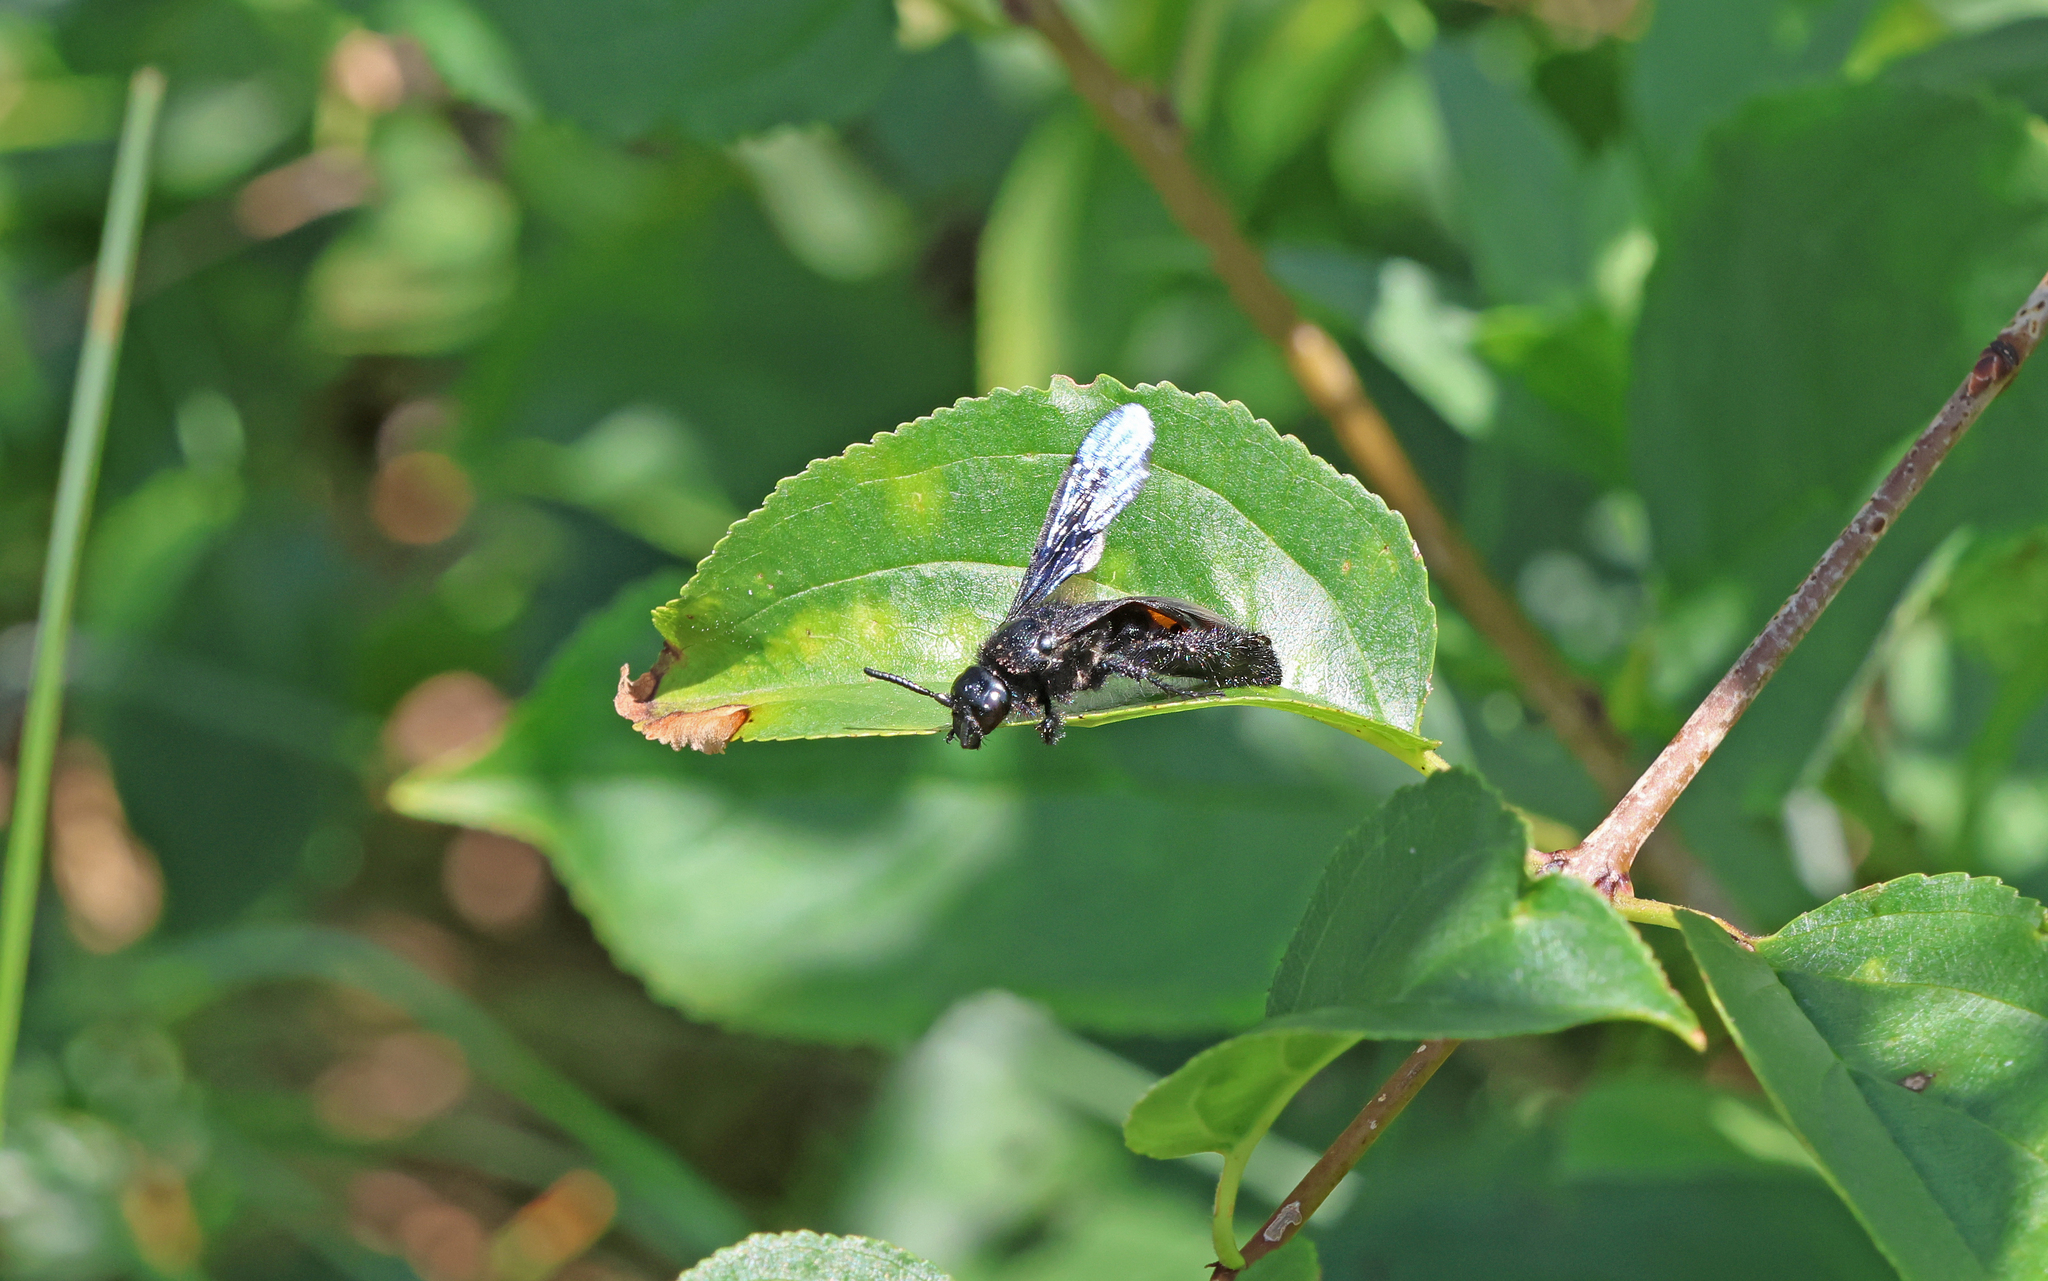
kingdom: Animalia
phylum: Arthropoda
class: Insecta
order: Hymenoptera
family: Scoliidae
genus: Scolia
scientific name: Scolia hirta
